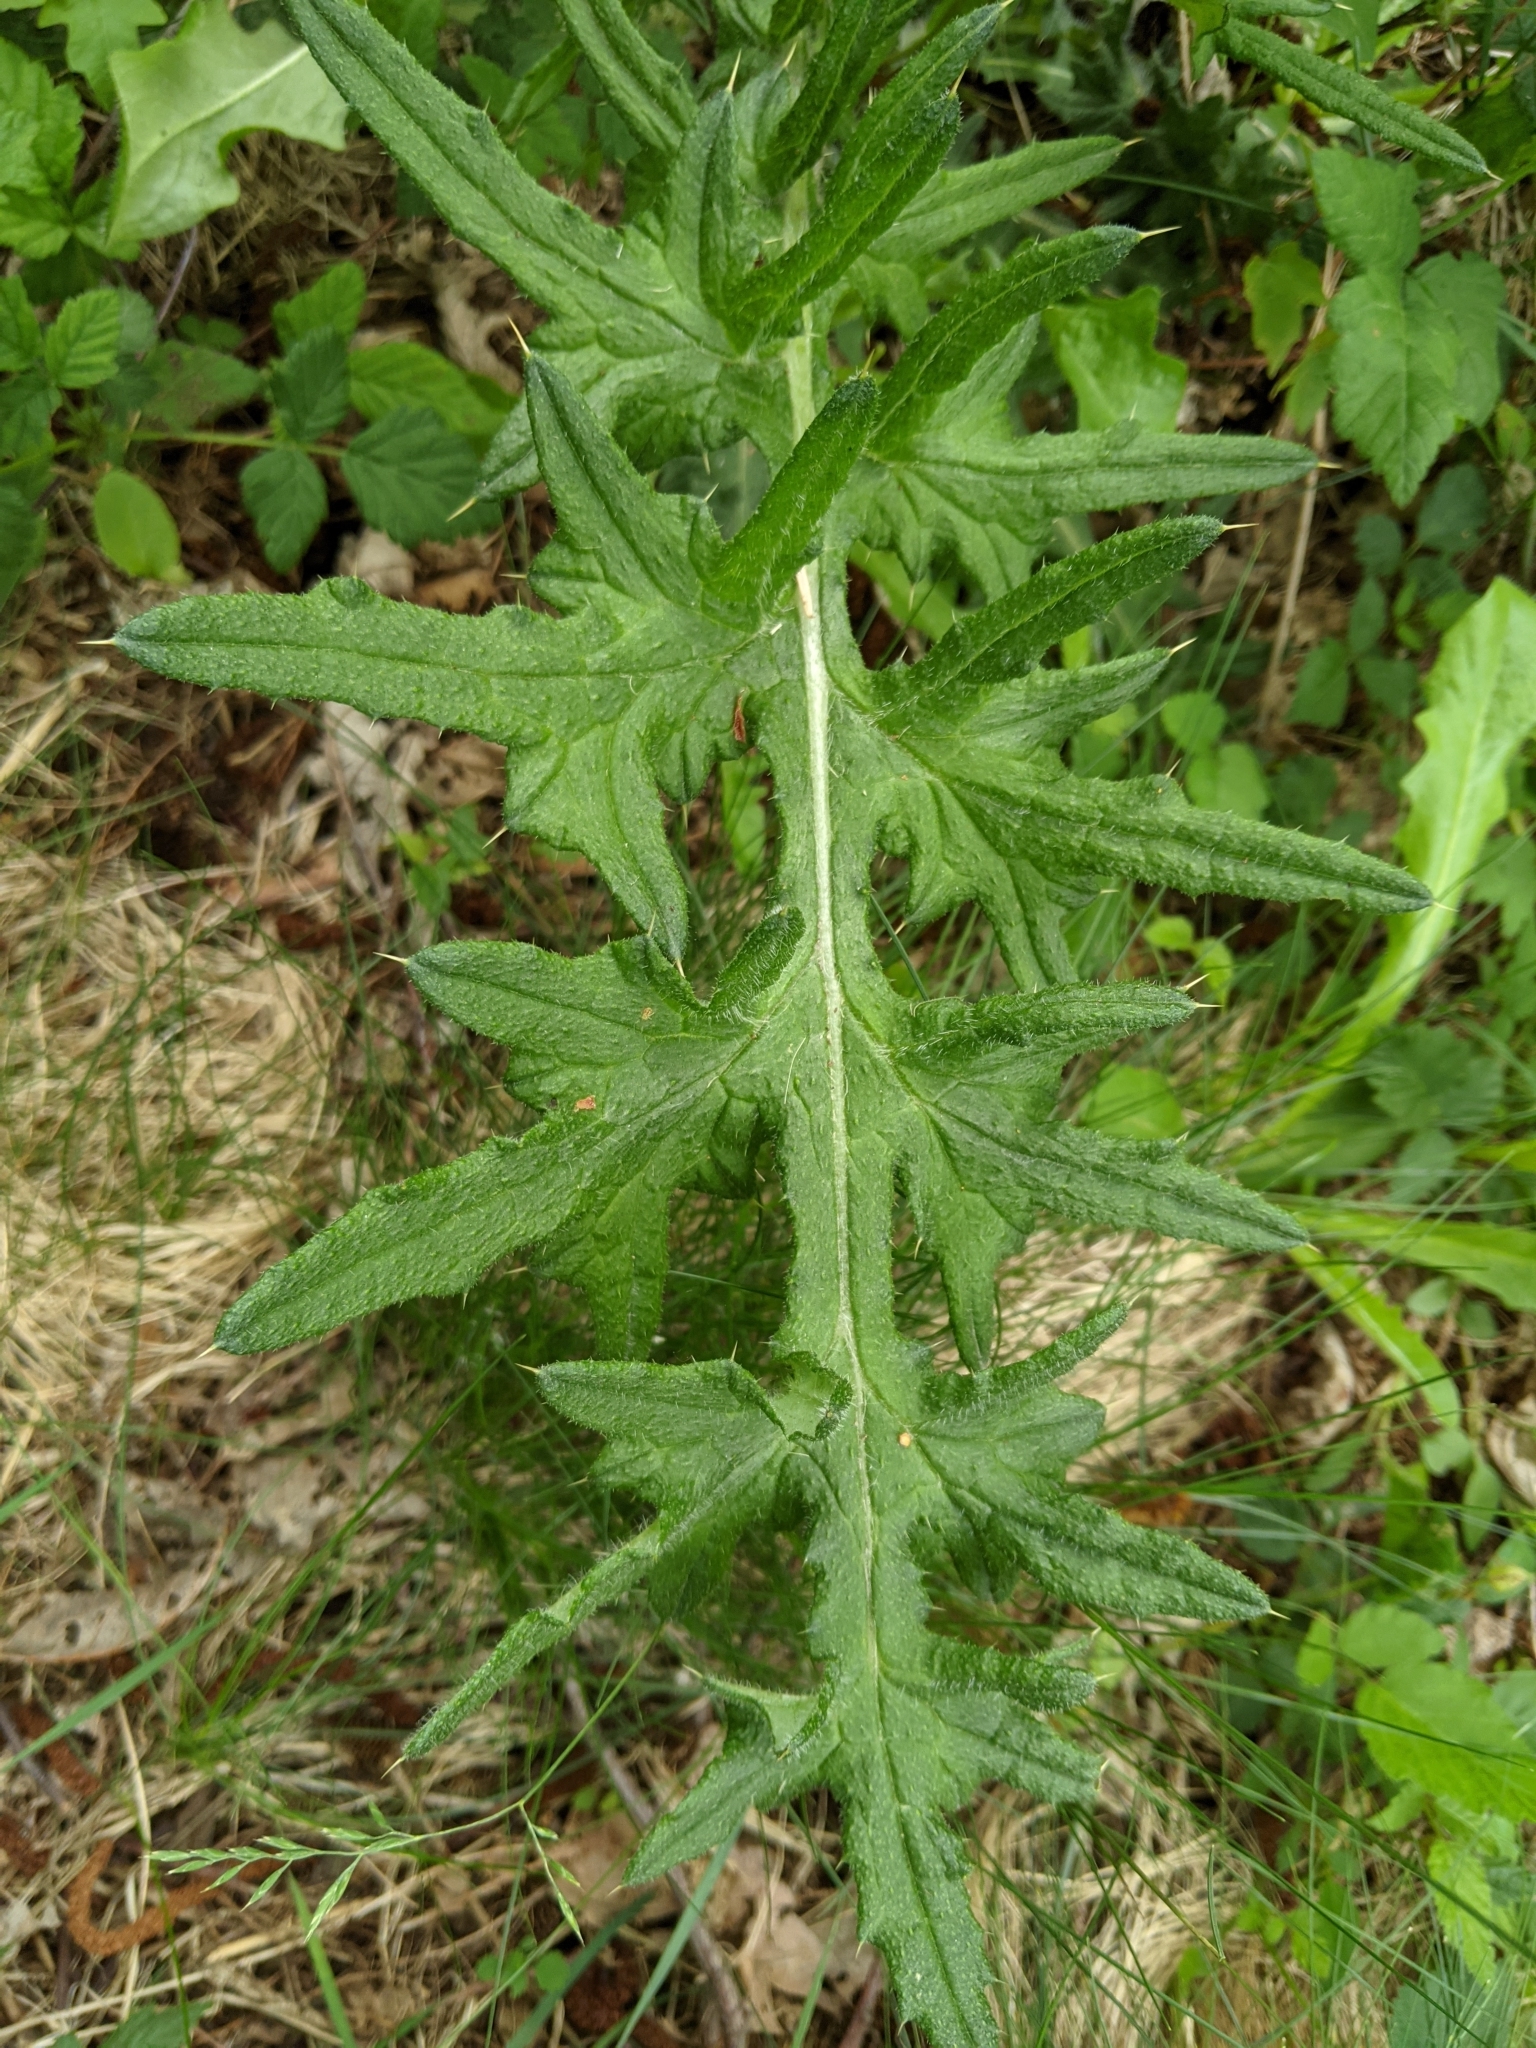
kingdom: Plantae
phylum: Tracheophyta
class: Magnoliopsida
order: Asterales
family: Asteraceae
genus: Cirsium
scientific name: Cirsium vulgare
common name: Bull thistle
